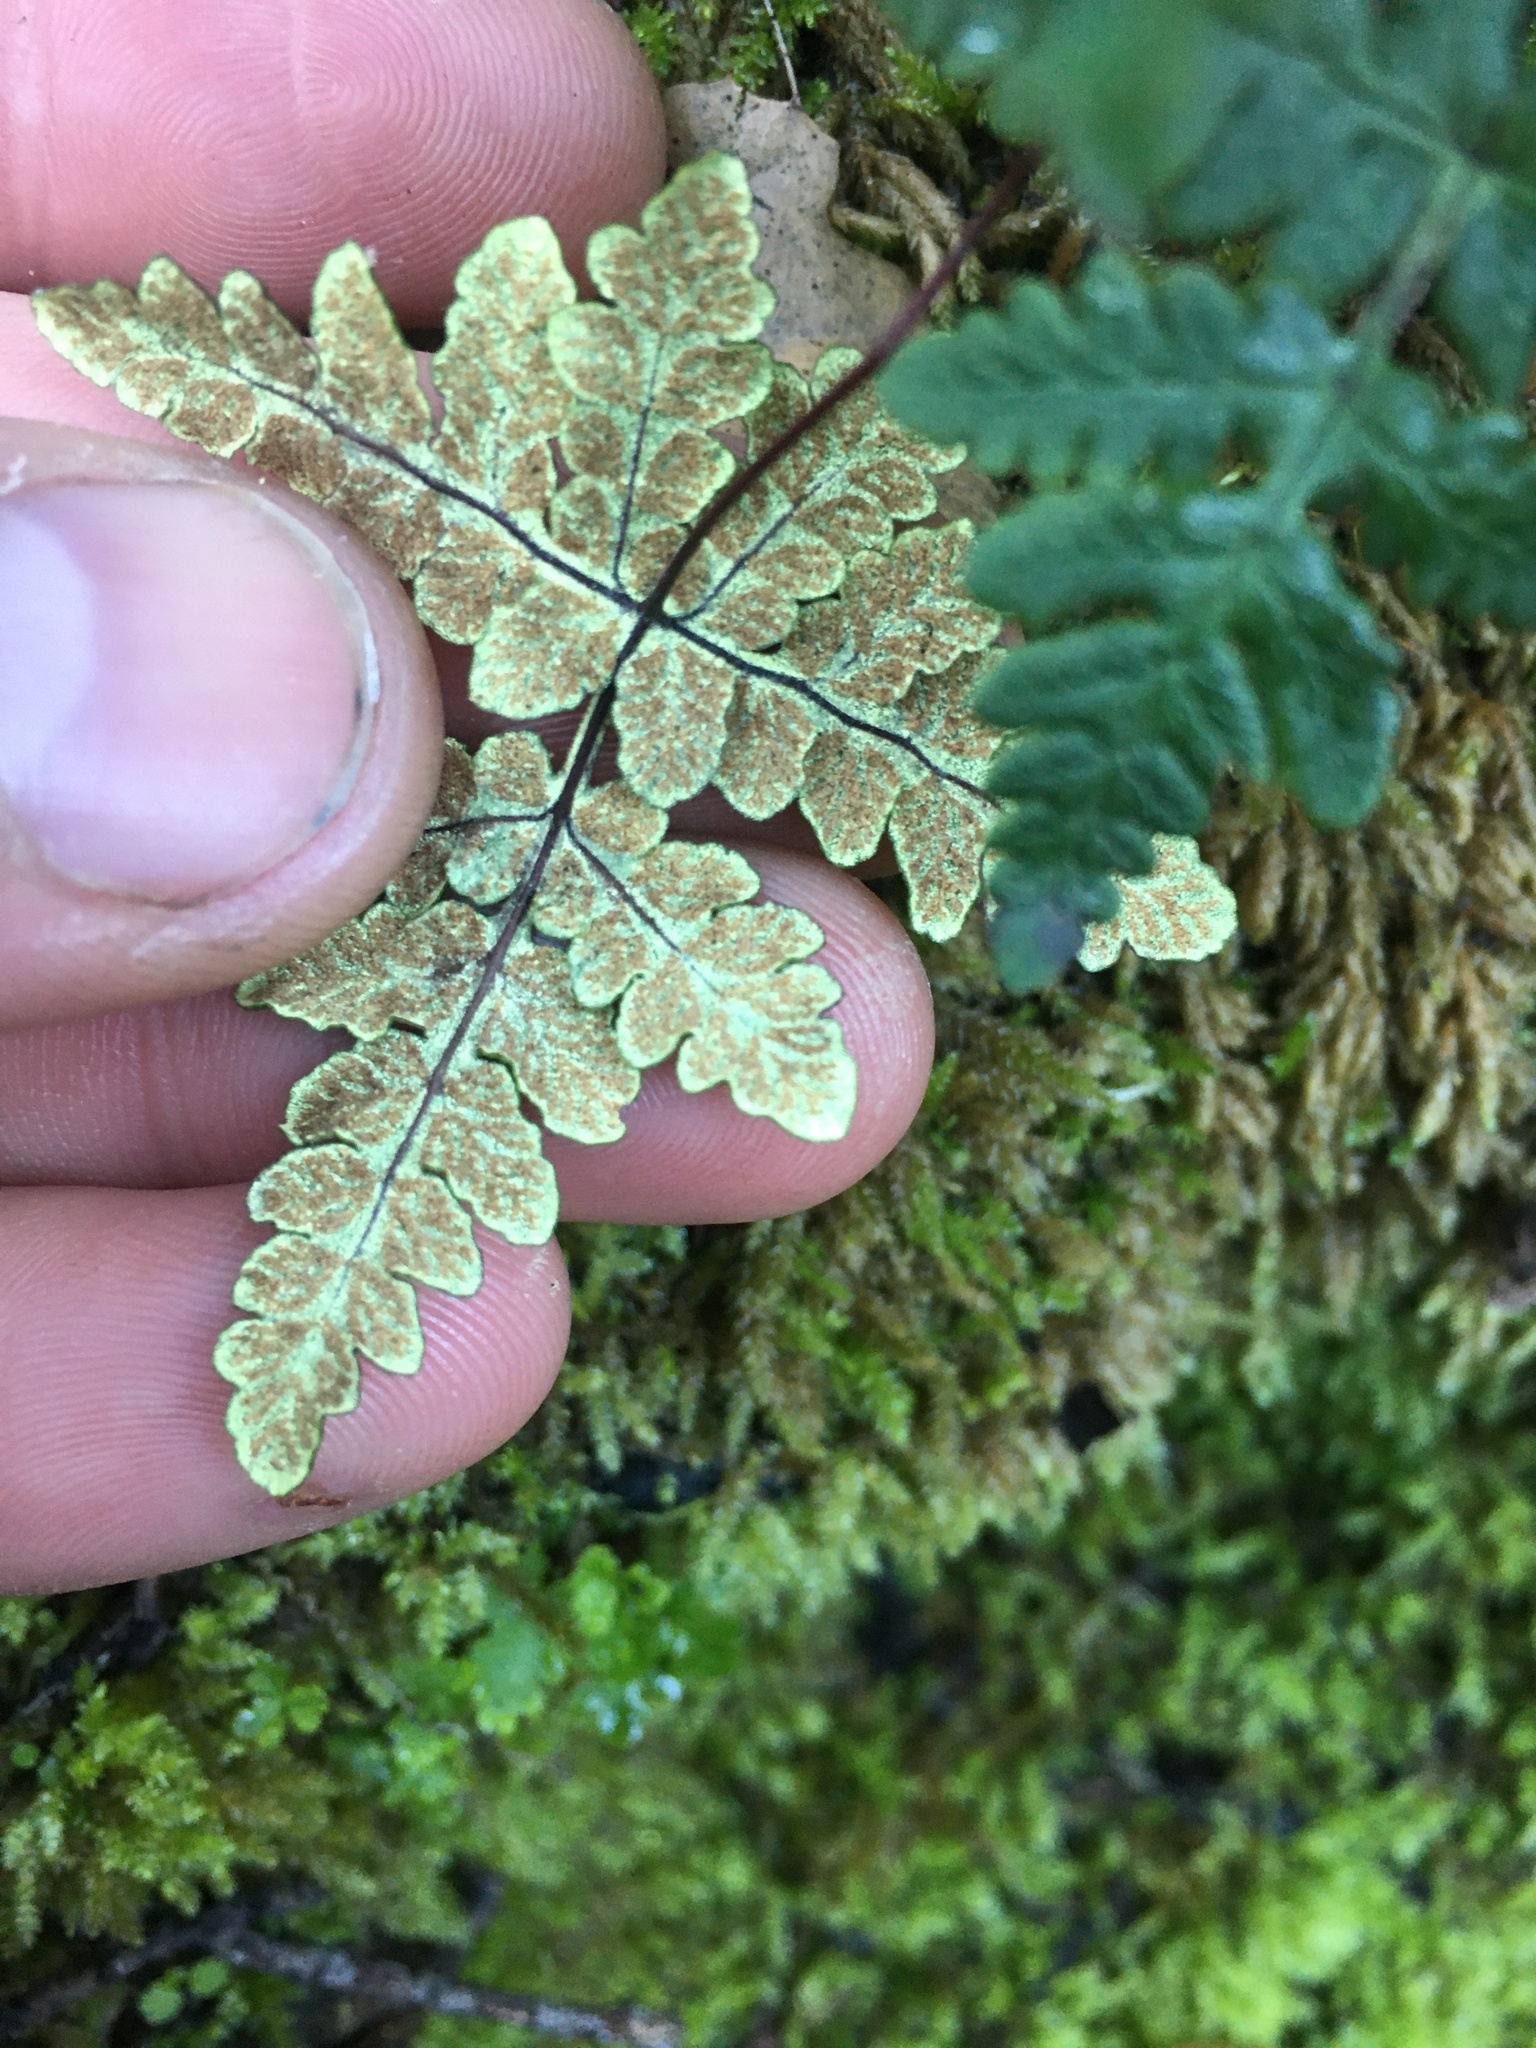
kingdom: Plantae
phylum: Tracheophyta
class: Polypodiopsida
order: Polypodiales
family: Pteridaceae
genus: Pentagramma
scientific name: Pentagramma triangularis
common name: Gold fern
